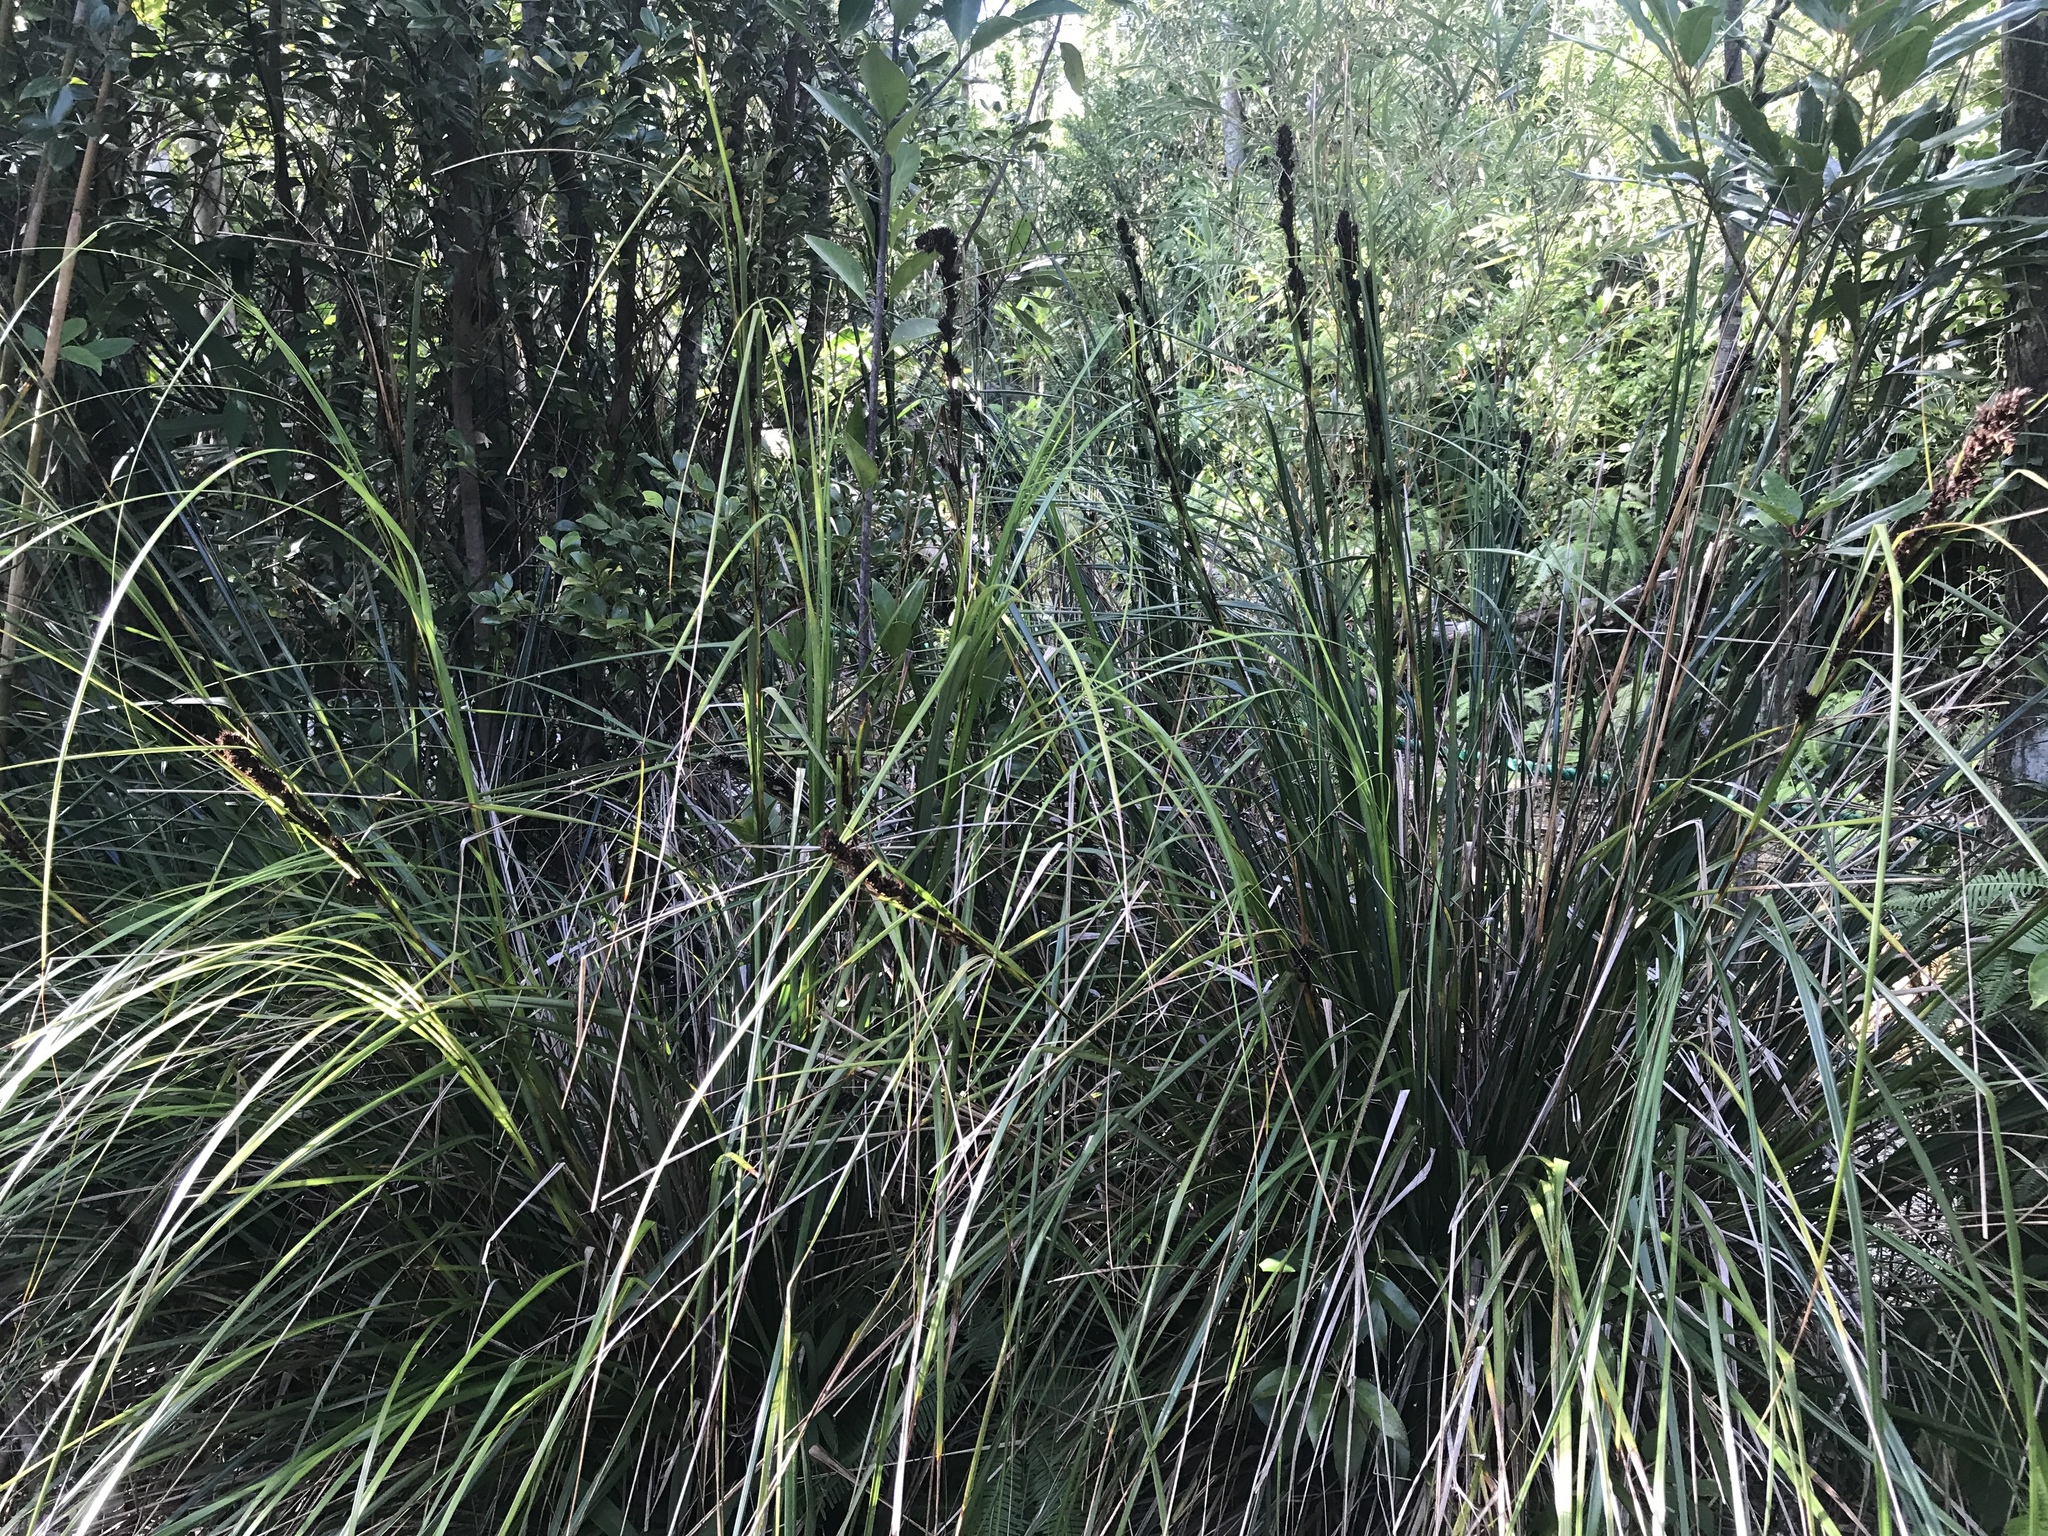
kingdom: Plantae
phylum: Tracheophyta
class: Liliopsida
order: Poales
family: Cyperaceae
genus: Gahnia
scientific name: Gahnia tristis
